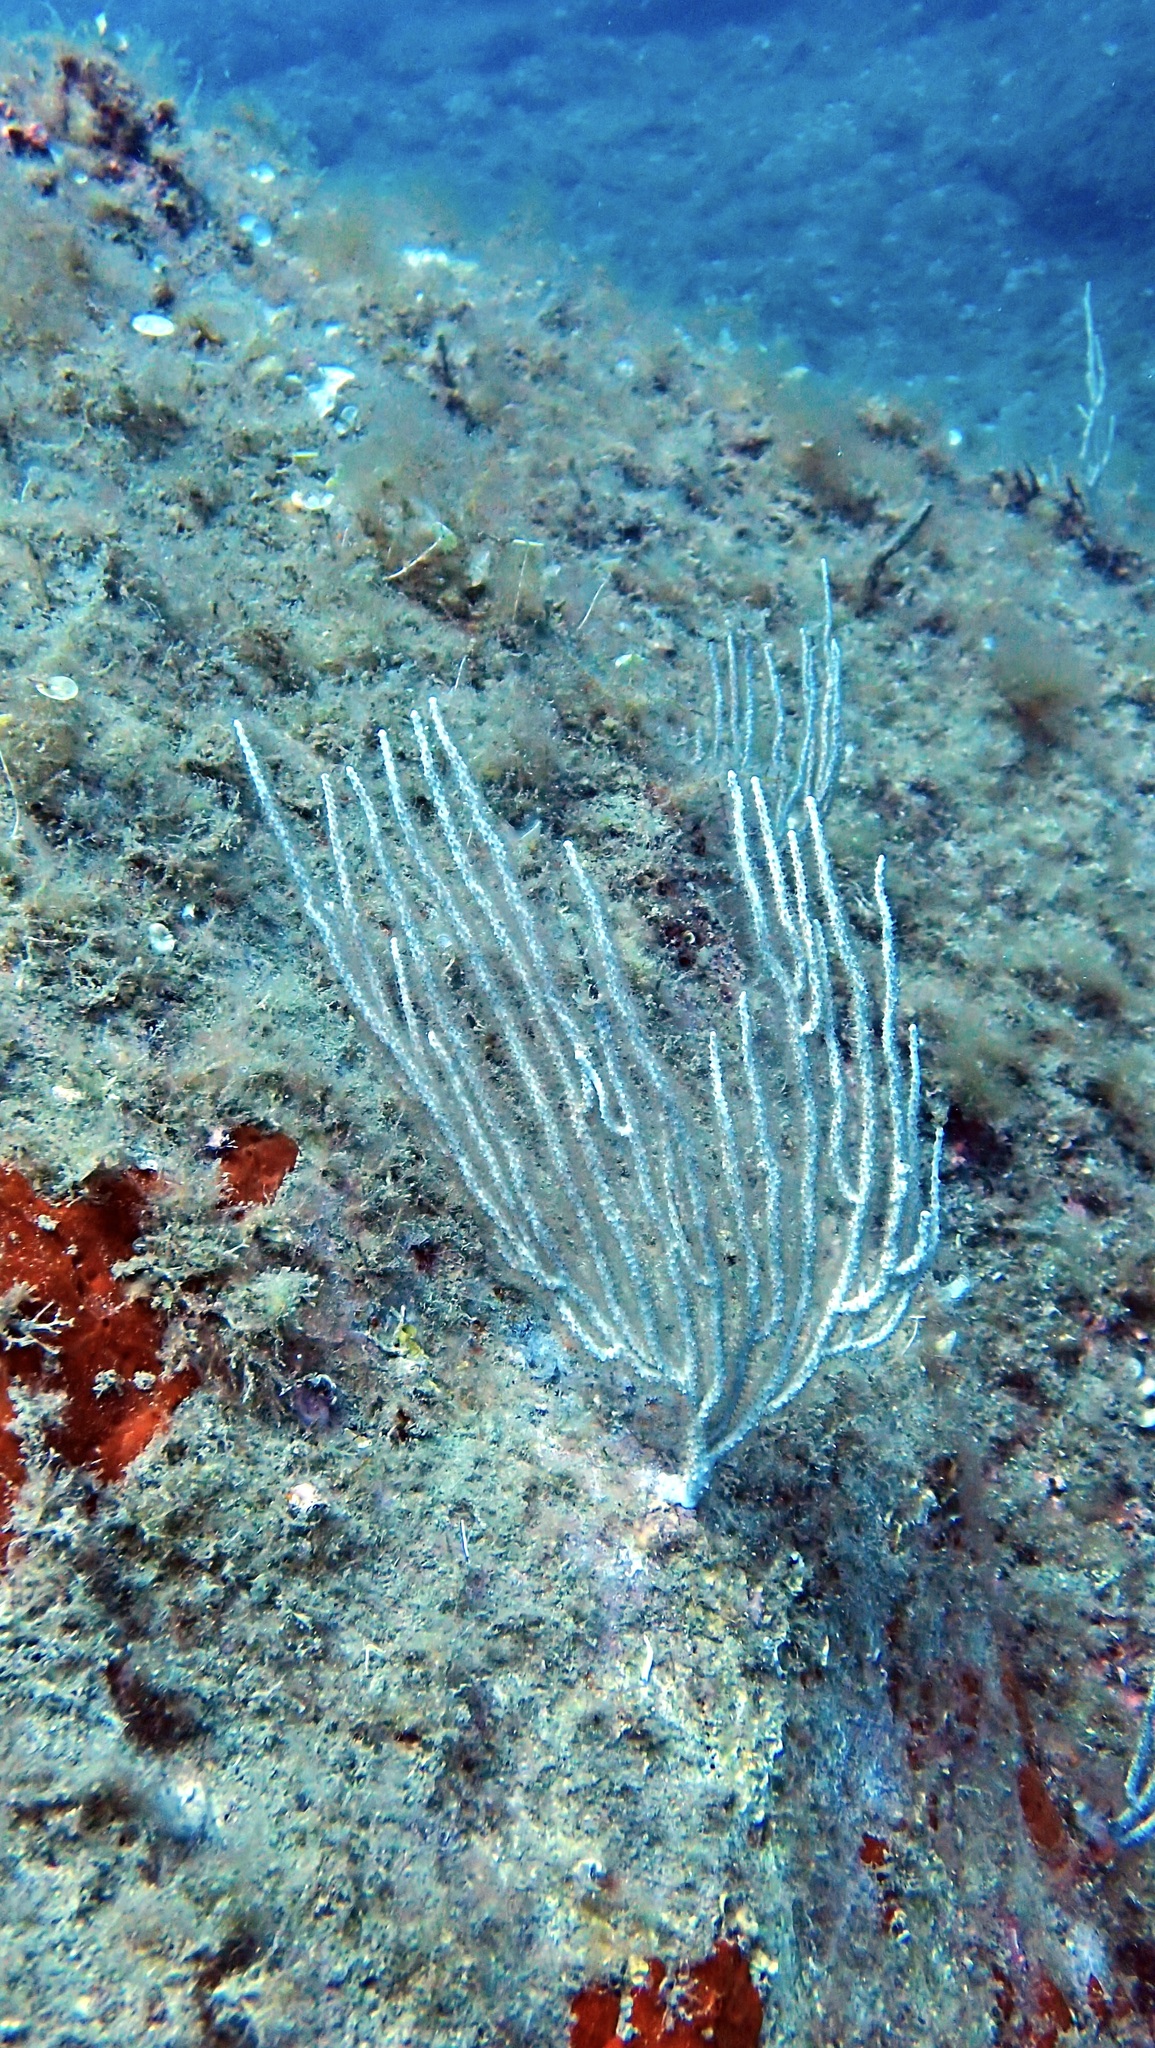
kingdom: Animalia
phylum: Cnidaria
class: Anthozoa
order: Malacalcyonacea
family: Eunicellidae
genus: Eunicella
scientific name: Eunicella singularis
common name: White horny coral
